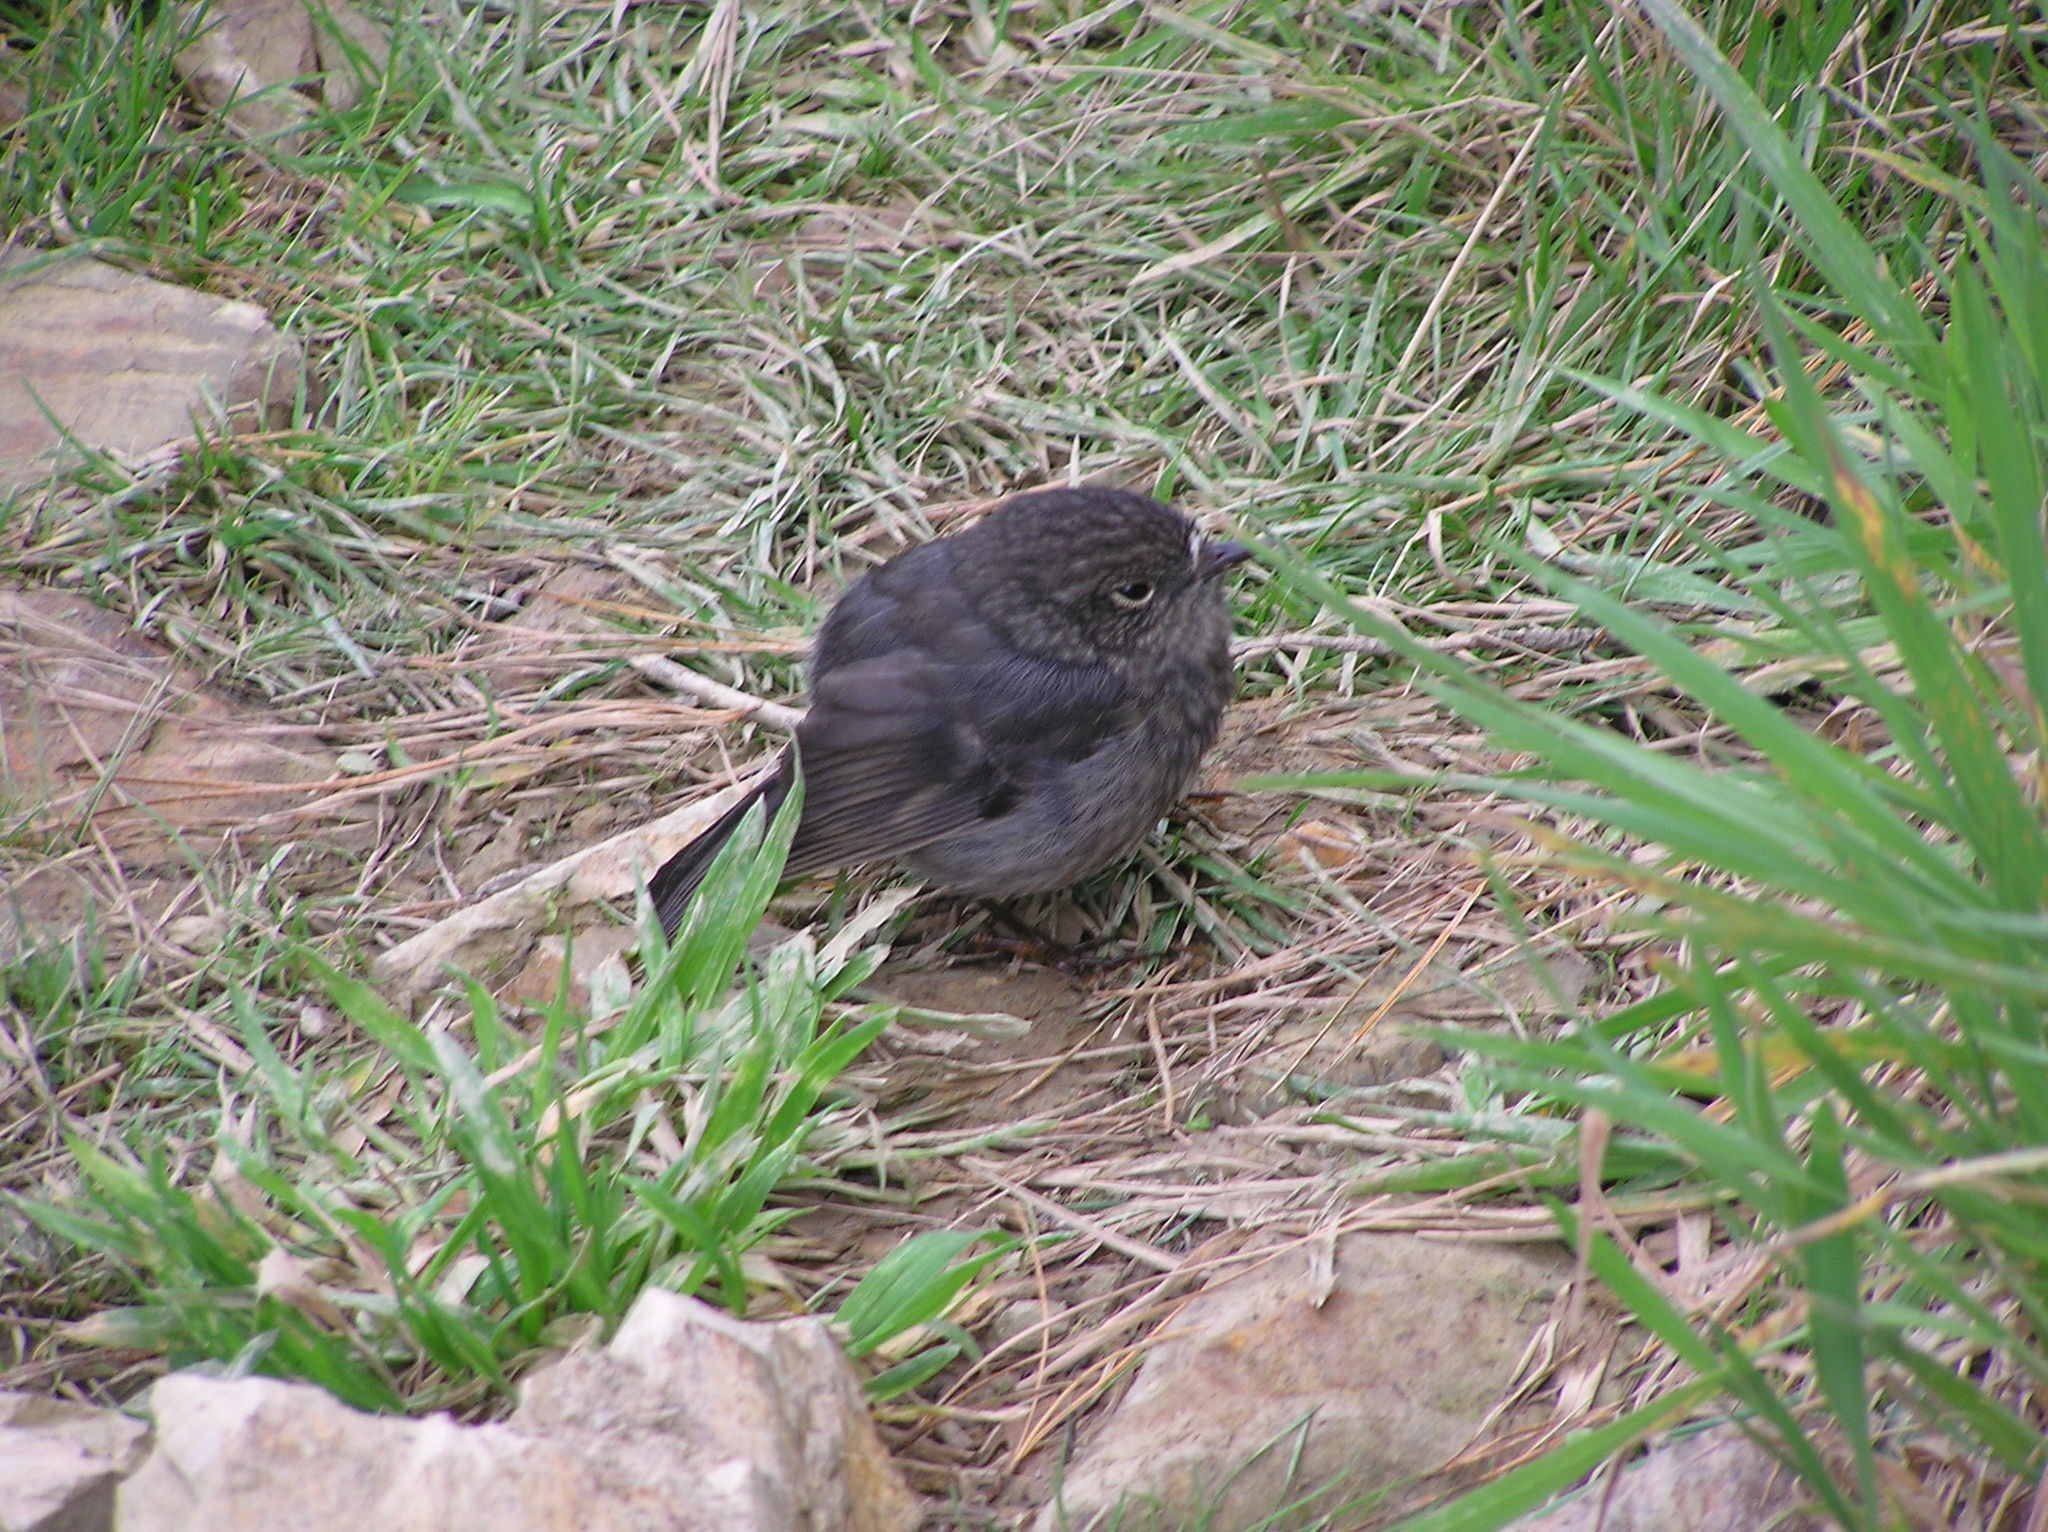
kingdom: Animalia
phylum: Chordata
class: Aves
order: Passeriformes
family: Petroicidae
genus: Petroica
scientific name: Petroica australis
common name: New zealand robin
